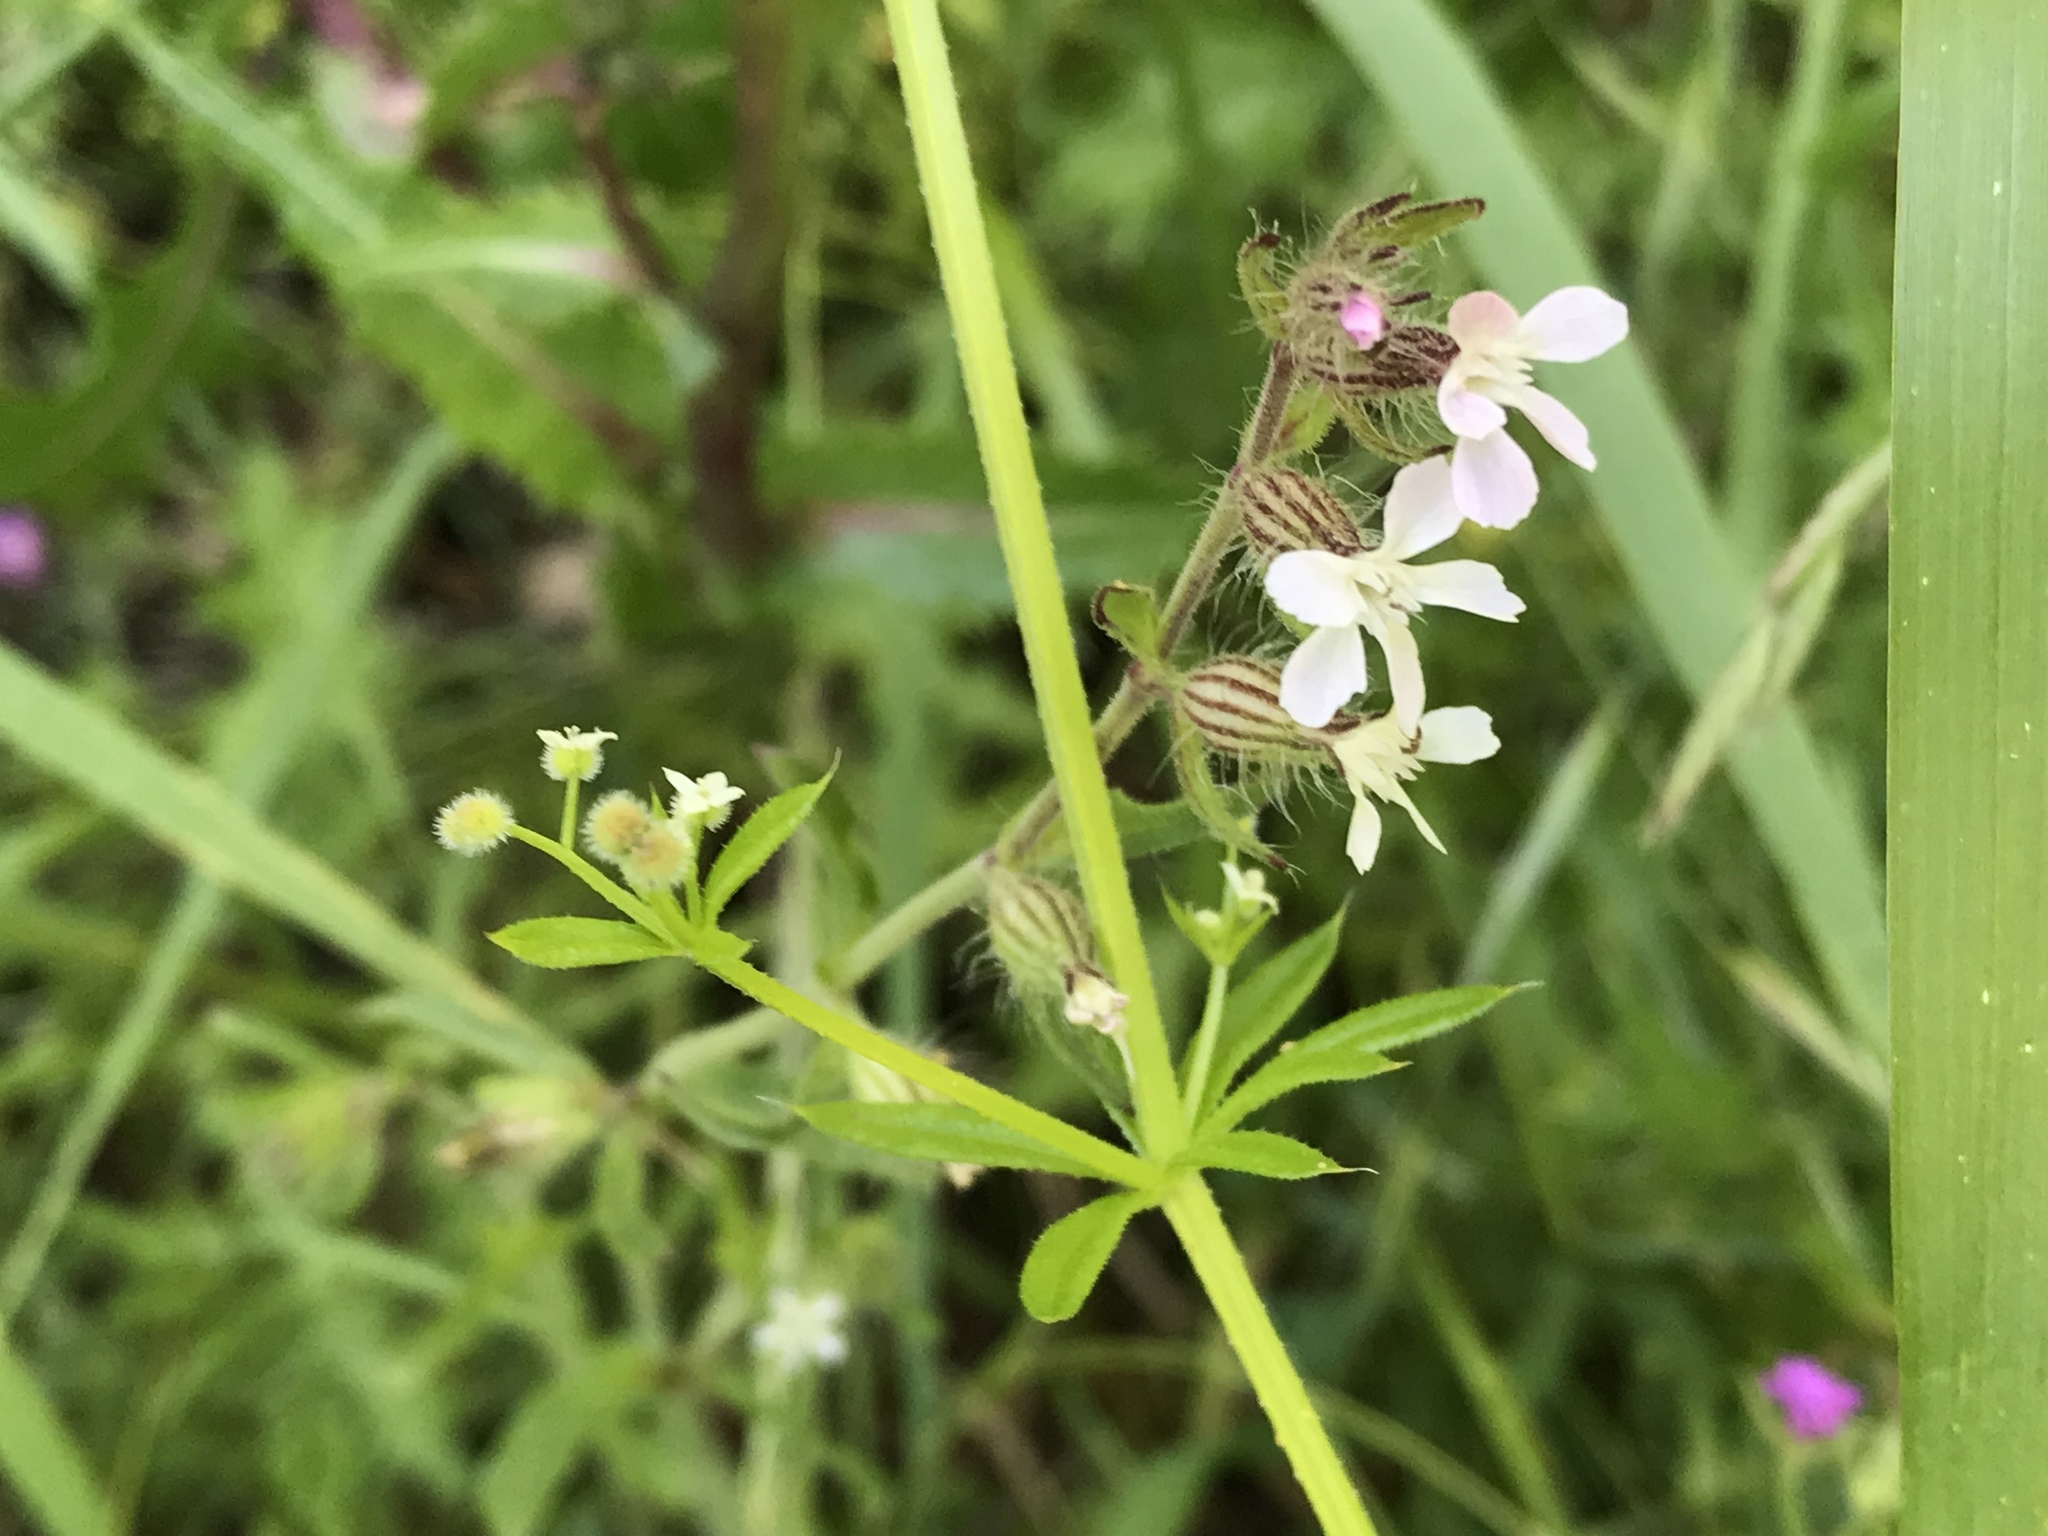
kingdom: Plantae
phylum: Tracheophyta
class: Magnoliopsida
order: Caryophyllales
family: Caryophyllaceae
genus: Silene
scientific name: Silene gallica
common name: Small-flowered catchfly
